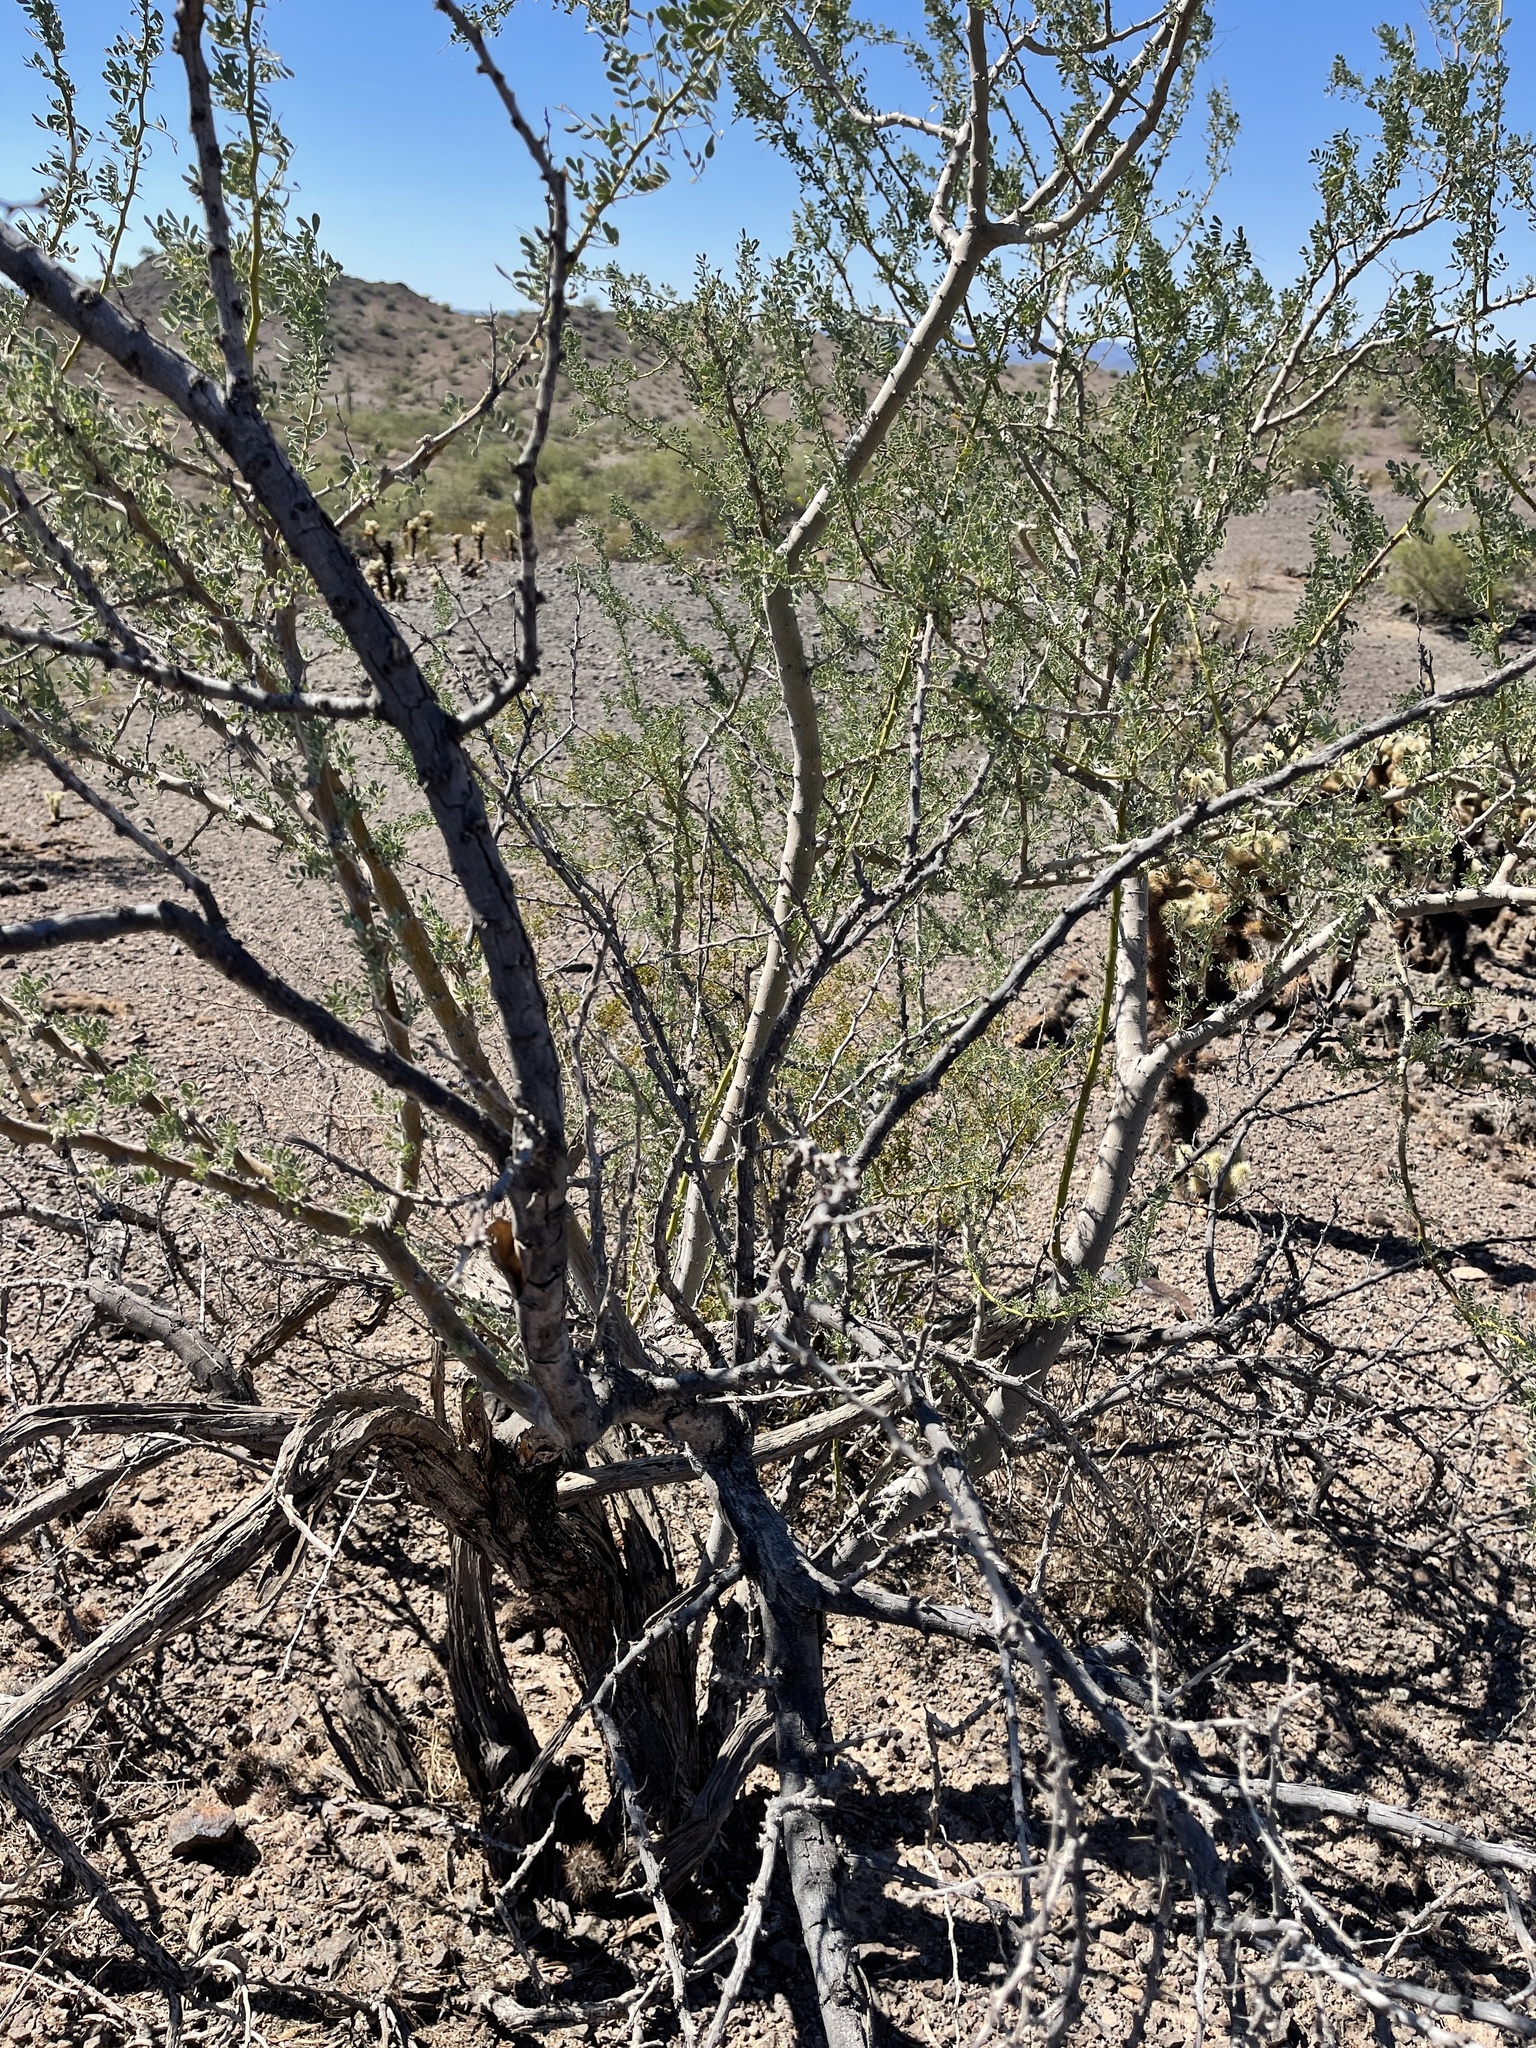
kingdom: Plantae
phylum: Tracheophyta
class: Magnoliopsida
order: Fabales
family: Fabaceae
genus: Olneya
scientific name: Olneya tesota
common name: Desert ironwood
